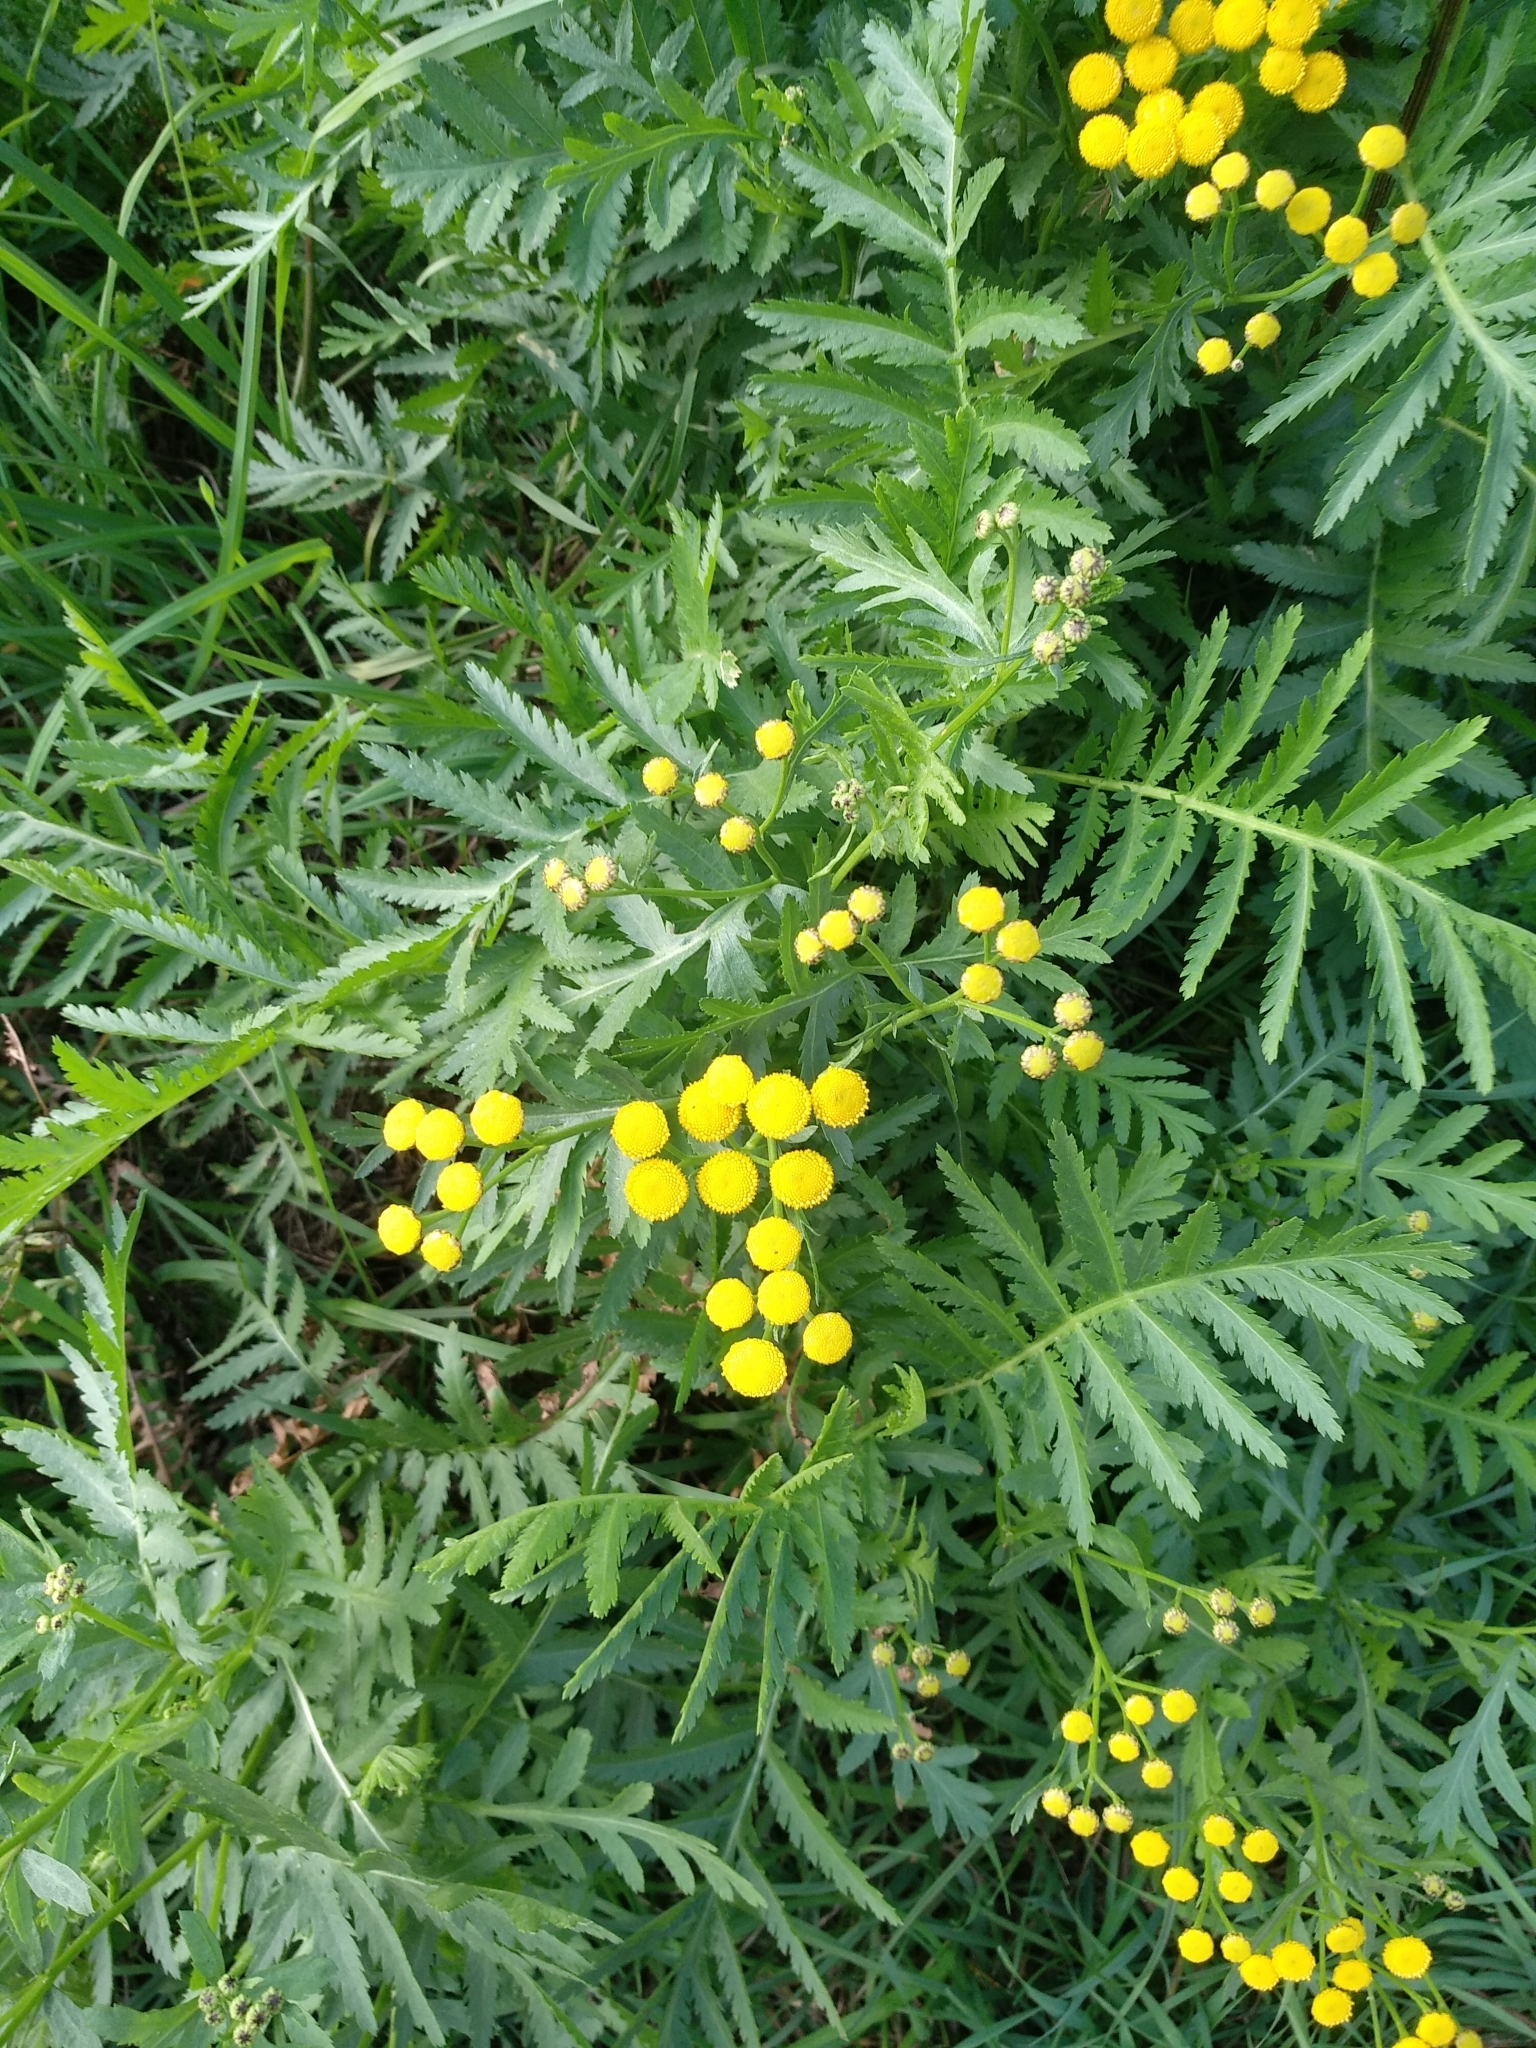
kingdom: Plantae
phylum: Tracheophyta
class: Magnoliopsida
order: Asterales
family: Asteraceae
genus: Tanacetum
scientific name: Tanacetum vulgare
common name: Common tansy
